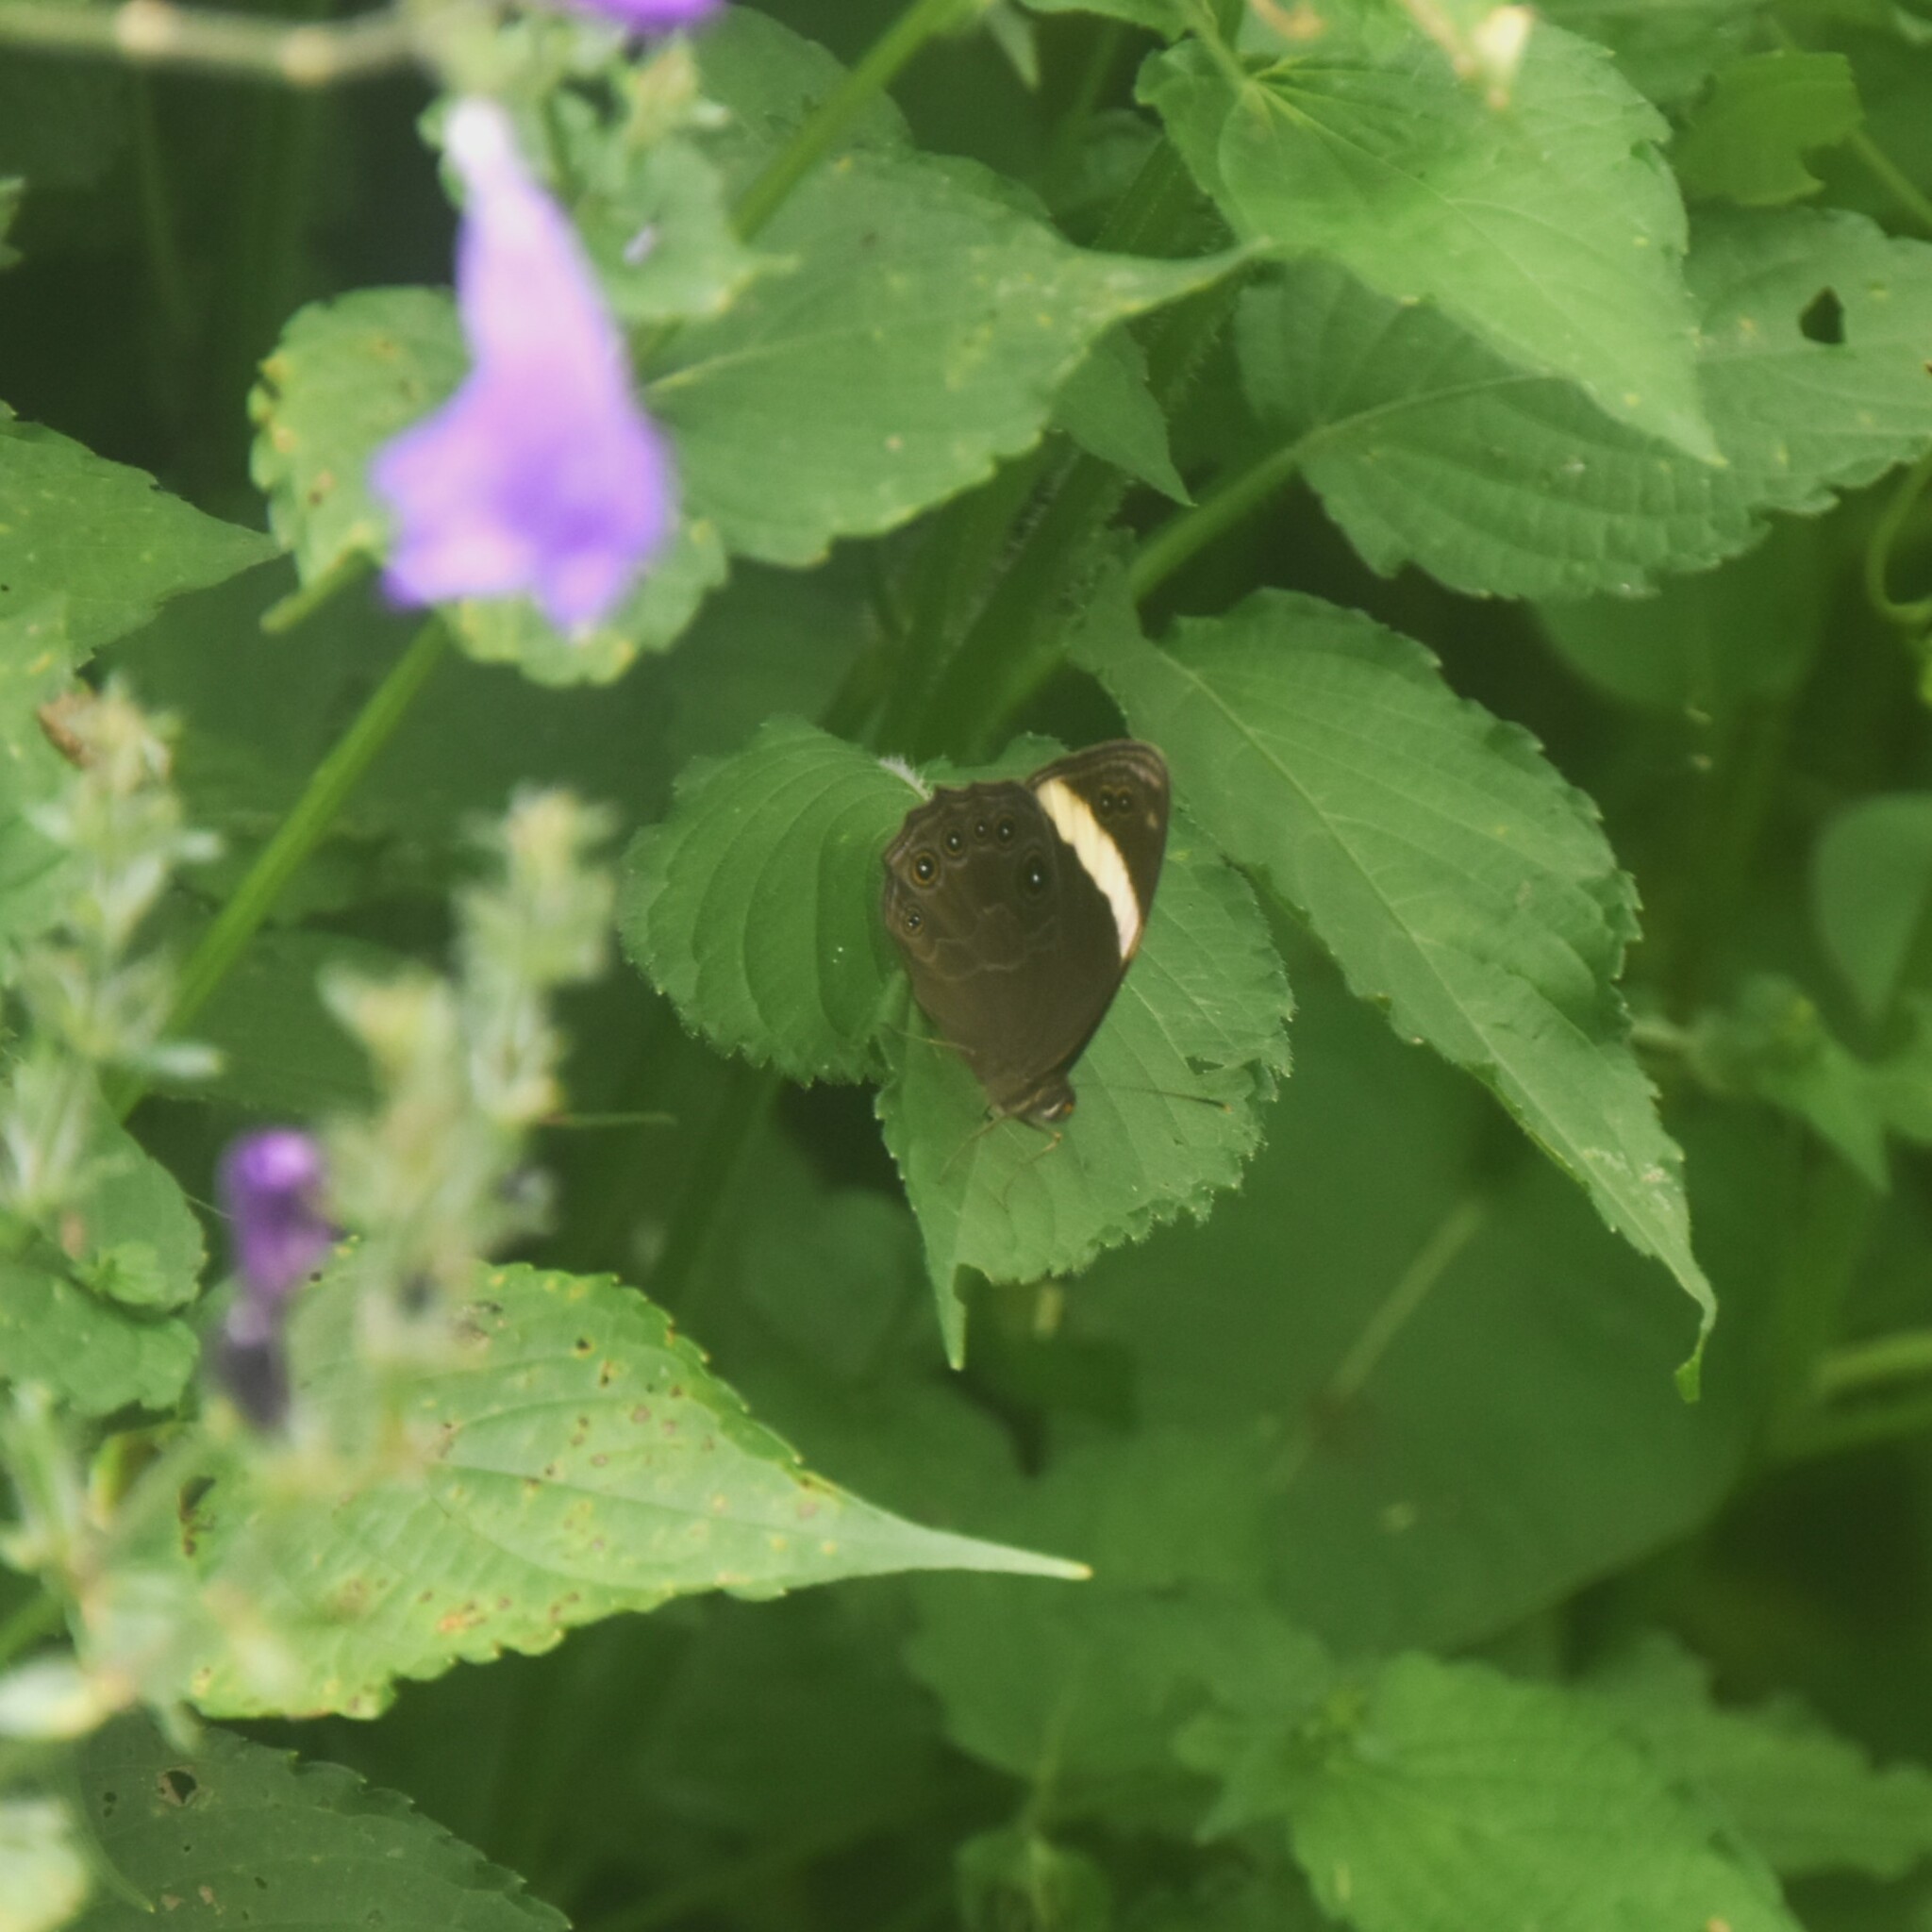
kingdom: Animalia
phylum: Arthropoda
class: Insecta
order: Lepidoptera
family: Nymphalidae
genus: Lethe
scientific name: Lethe verma
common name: Straight-banded treebrown
